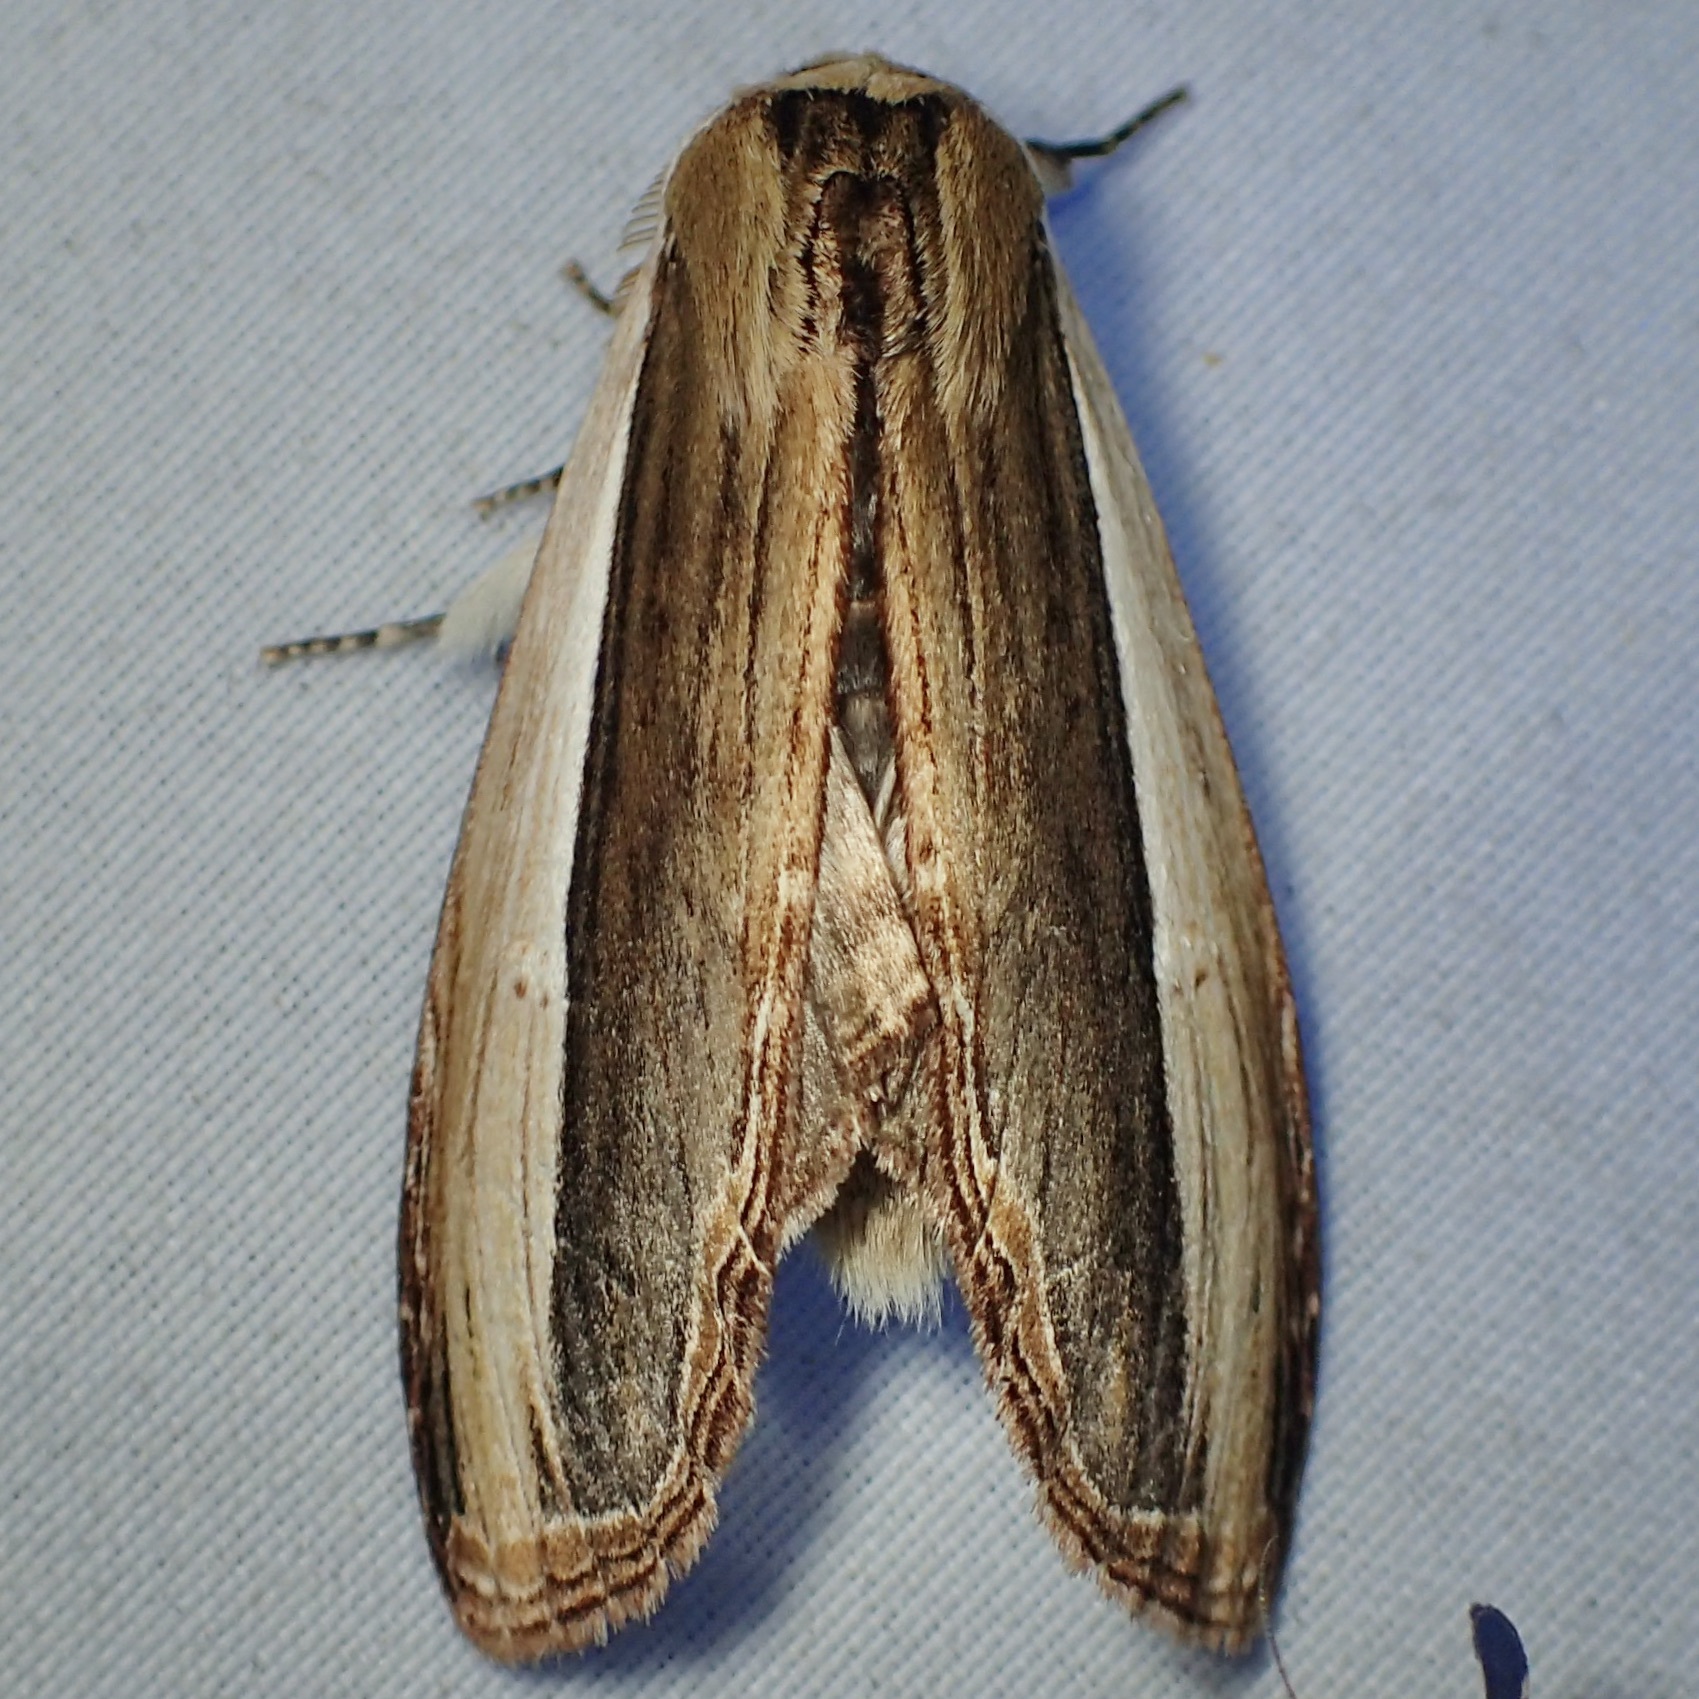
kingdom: Animalia
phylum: Arthropoda
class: Insecta
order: Lepidoptera
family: Notodontidae
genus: Truncaptera
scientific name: Truncaptera inopinata
